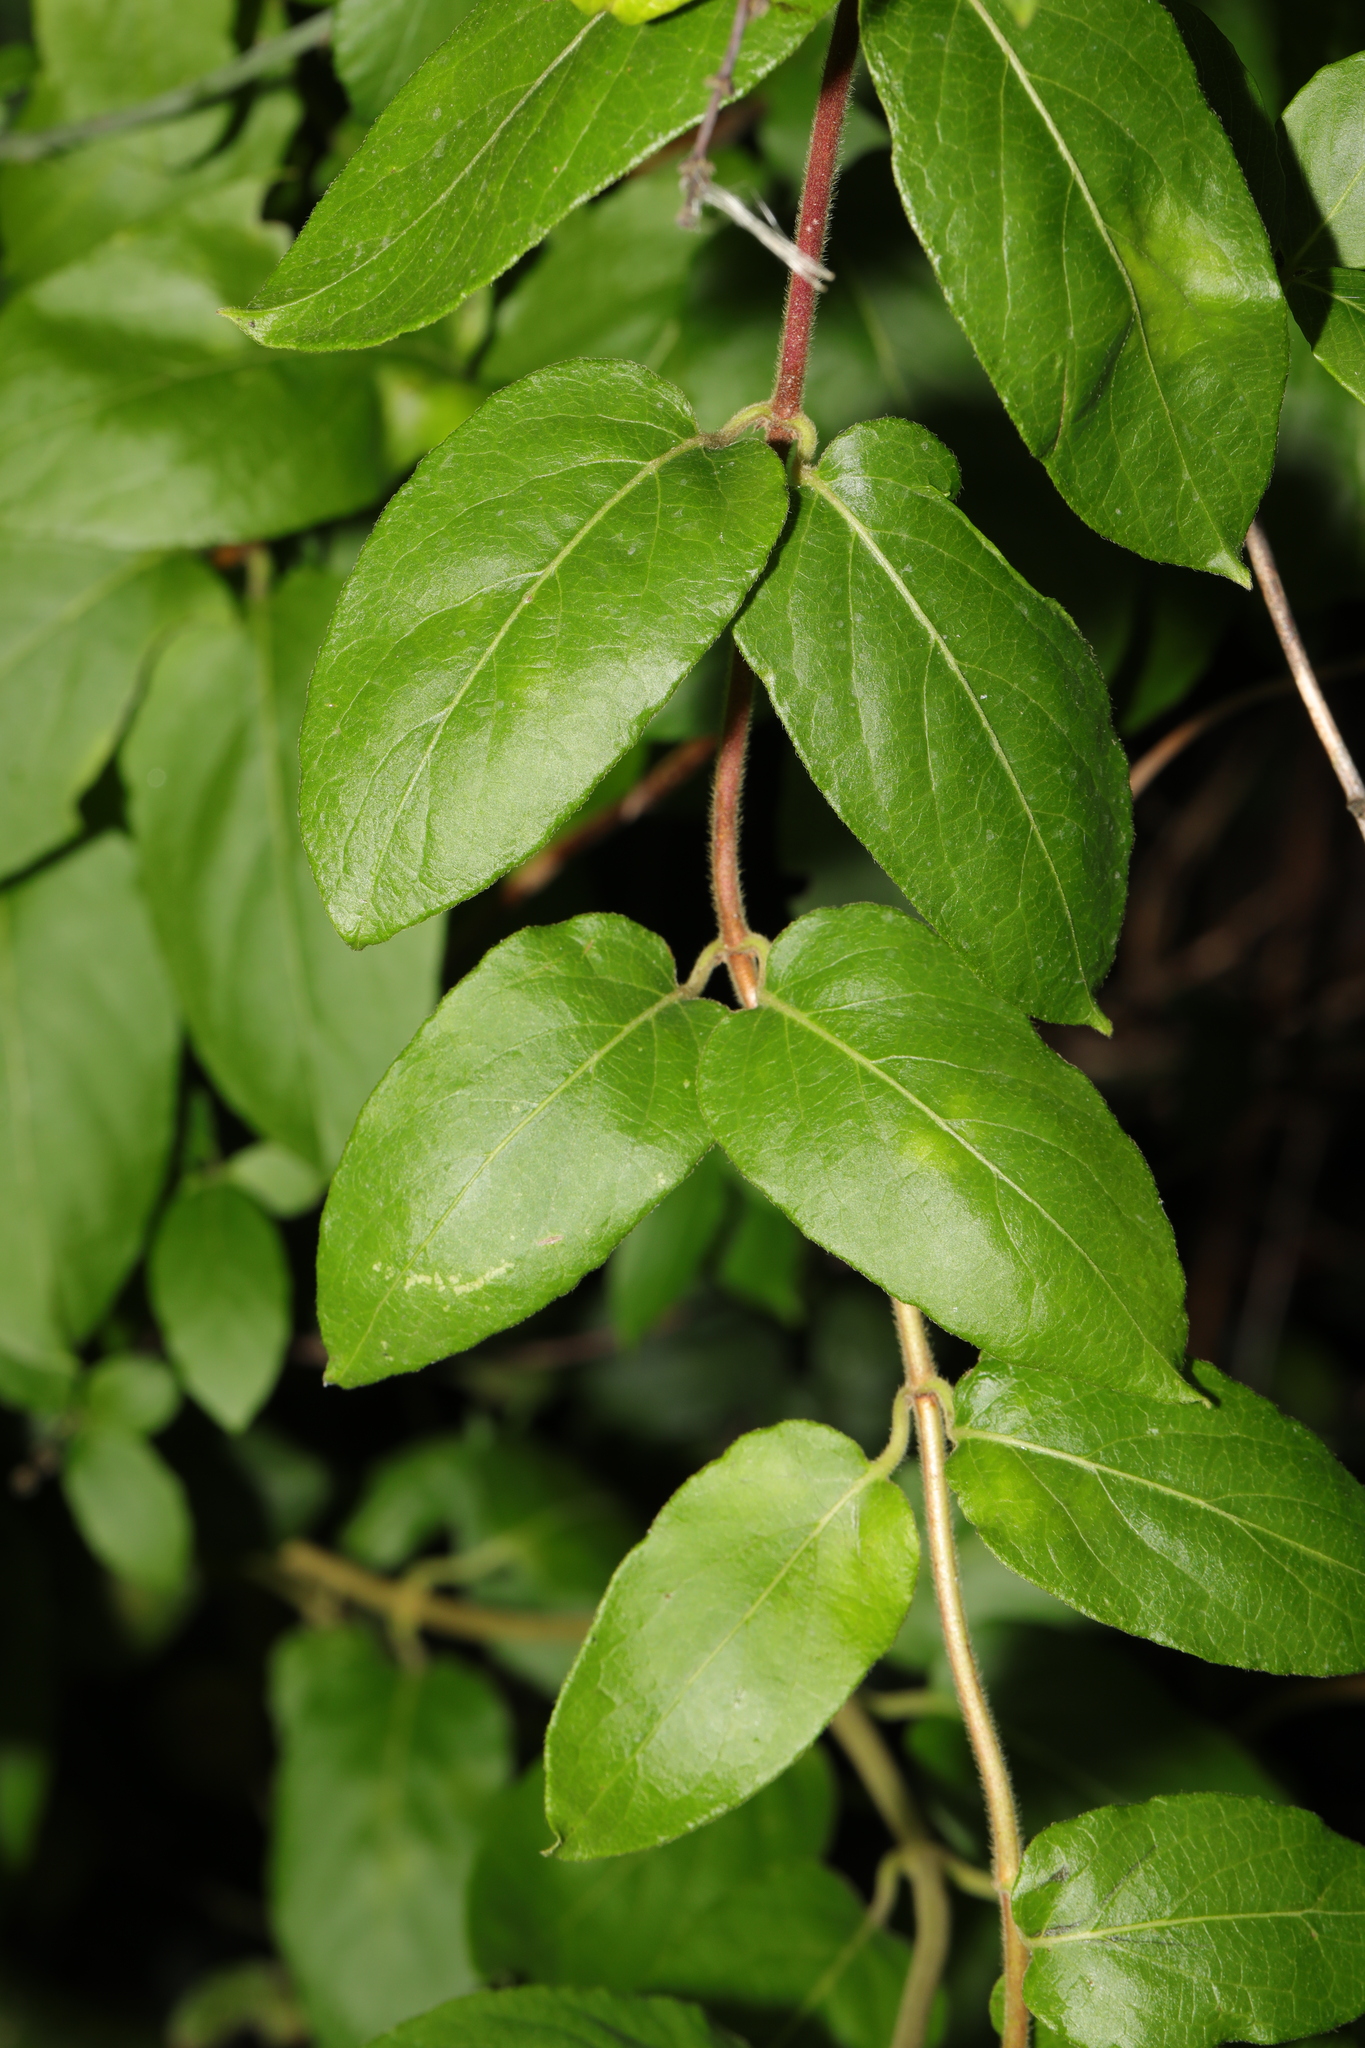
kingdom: Plantae
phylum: Tracheophyta
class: Magnoliopsida
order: Dipsacales
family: Caprifoliaceae
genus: Lonicera
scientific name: Lonicera japonica
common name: Japanese honeysuckle
